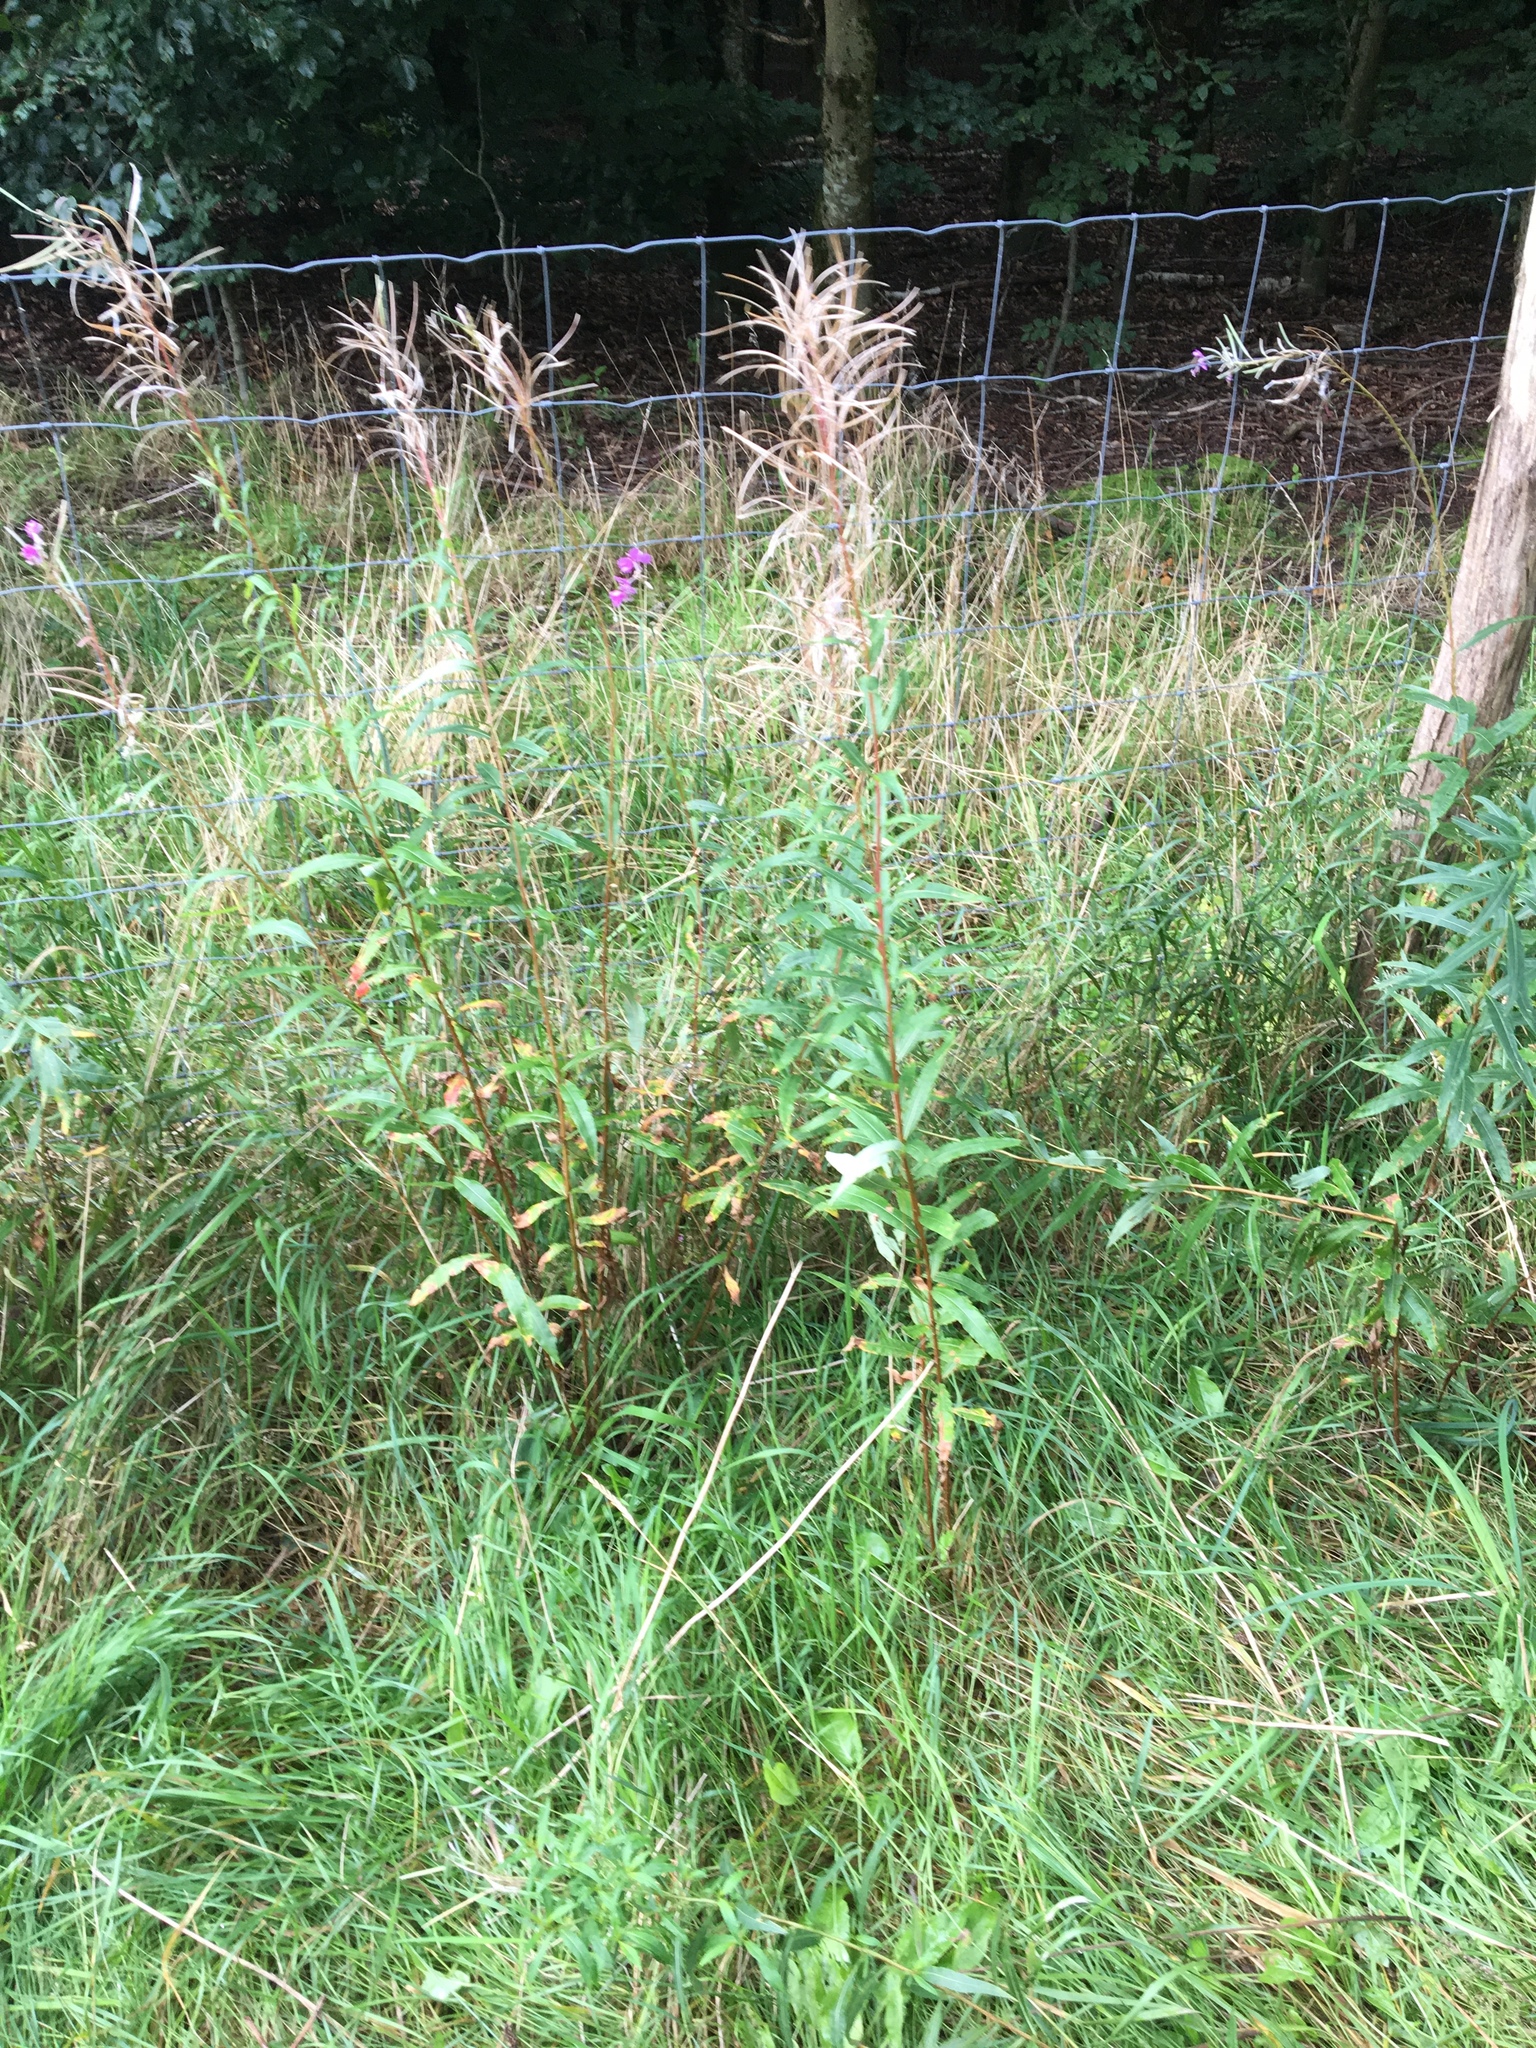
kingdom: Plantae
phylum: Tracheophyta
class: Magnoliopsida
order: Myrtales
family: Onagraceae
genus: Chamaenerion
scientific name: Chamaenerion angustifolium
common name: Fireweed
